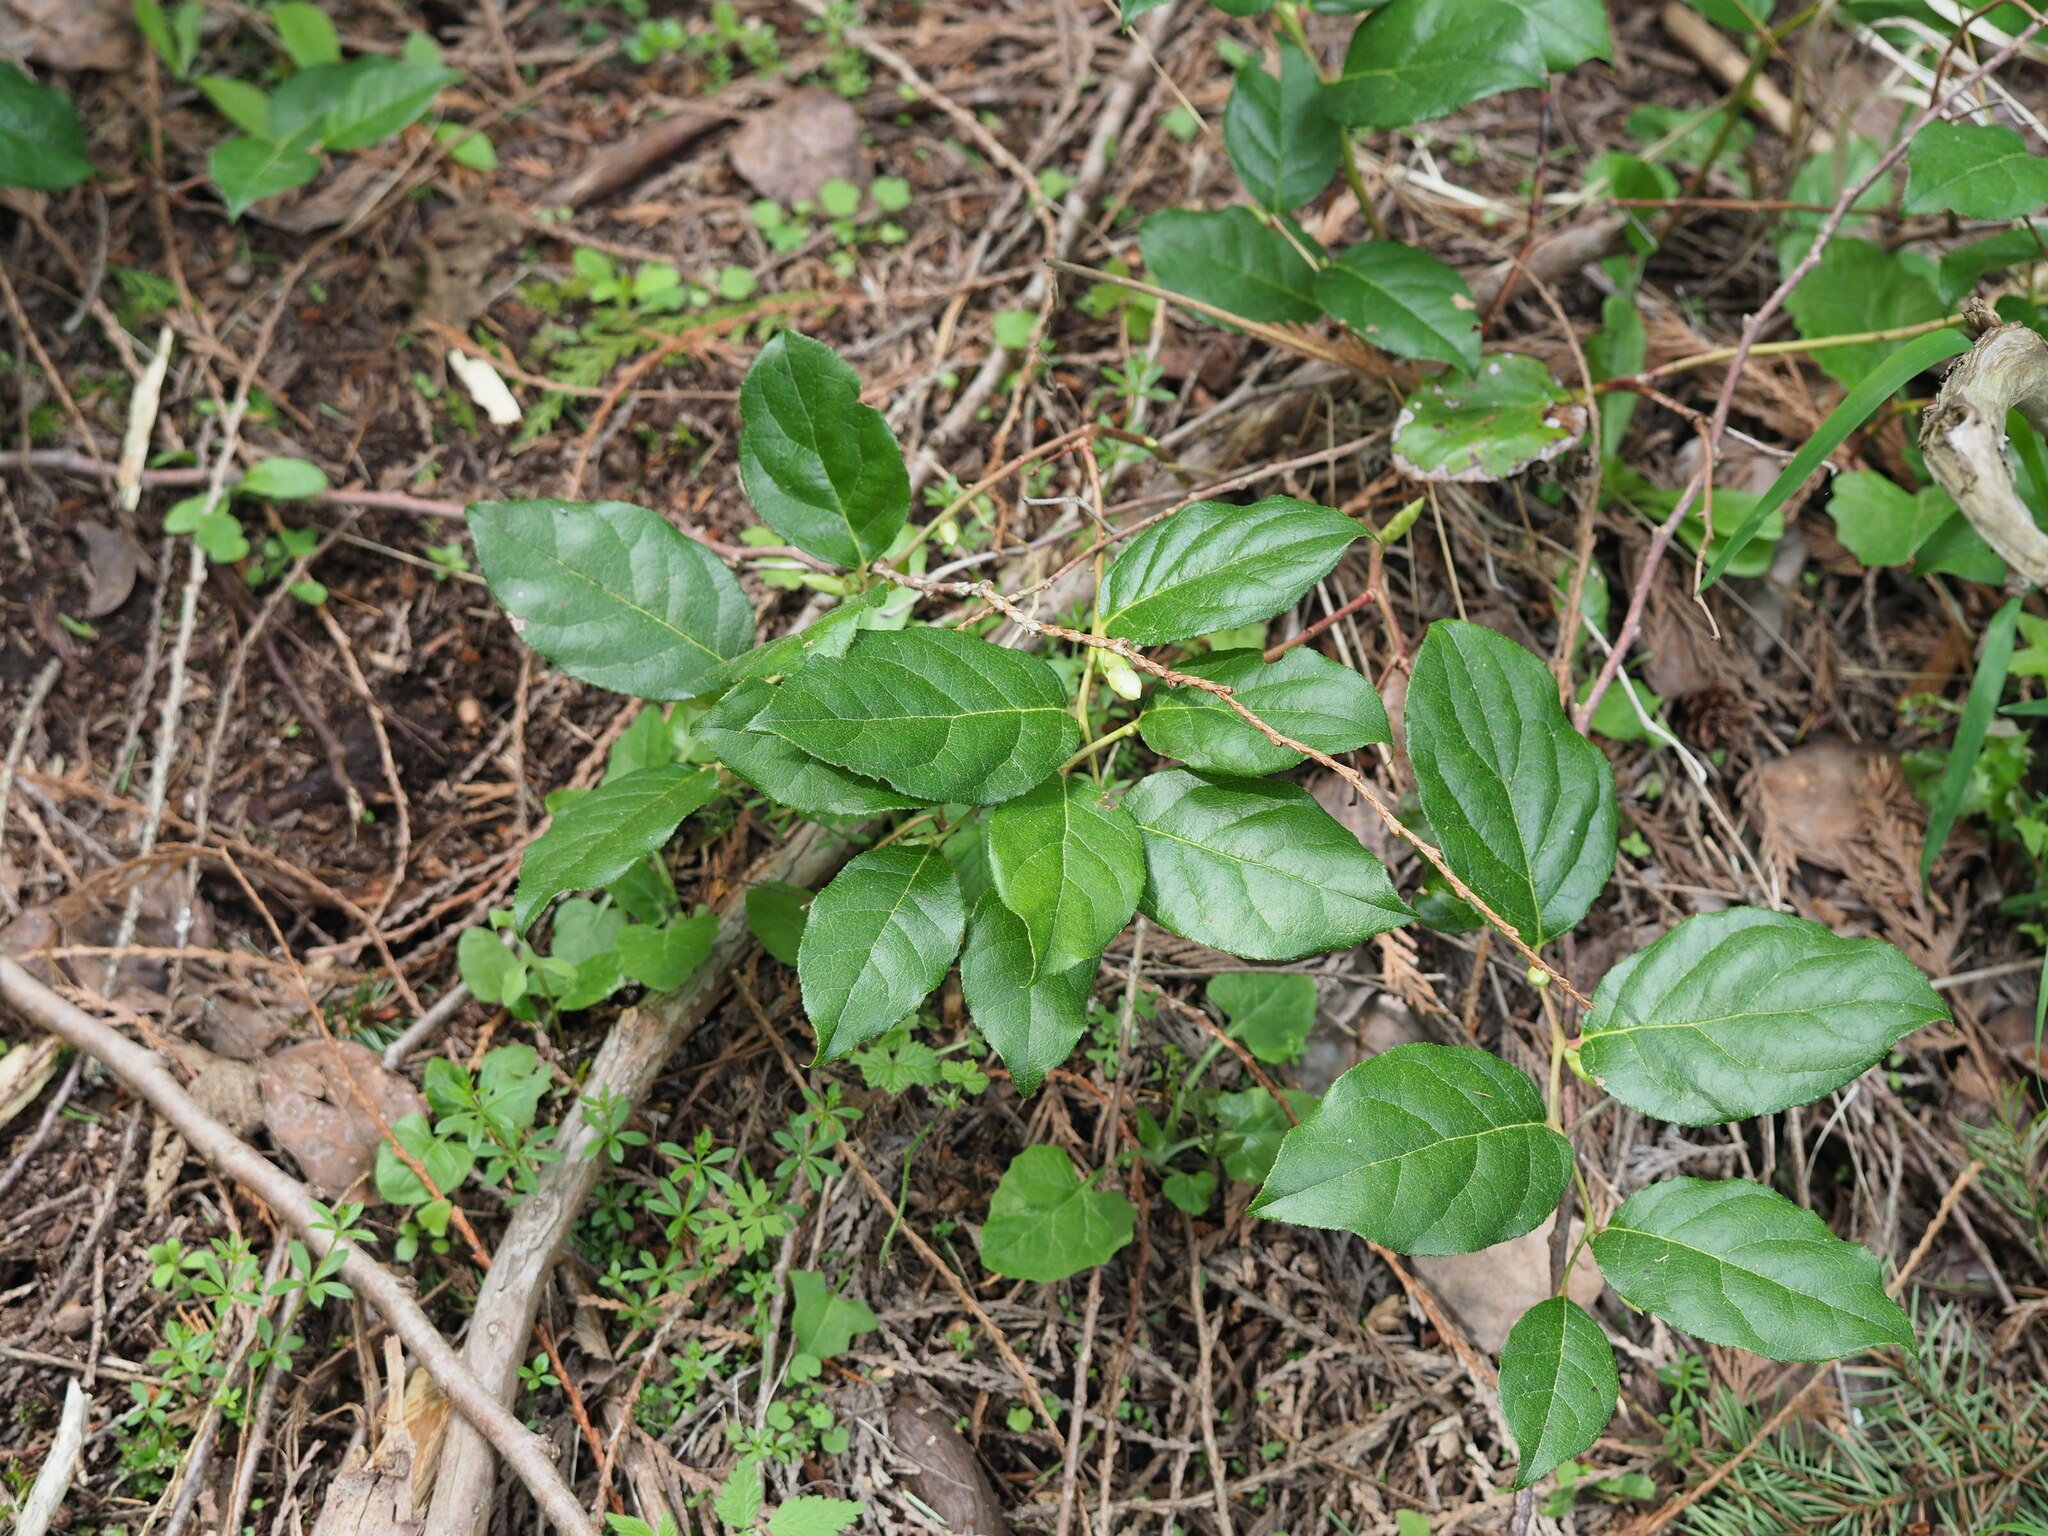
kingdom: Plantae
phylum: Tracheophyta
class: Magnoliopsida
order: Ericales
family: Ericaceae
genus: Gaultheria
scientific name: Gaultheria shallon
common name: Shallon
